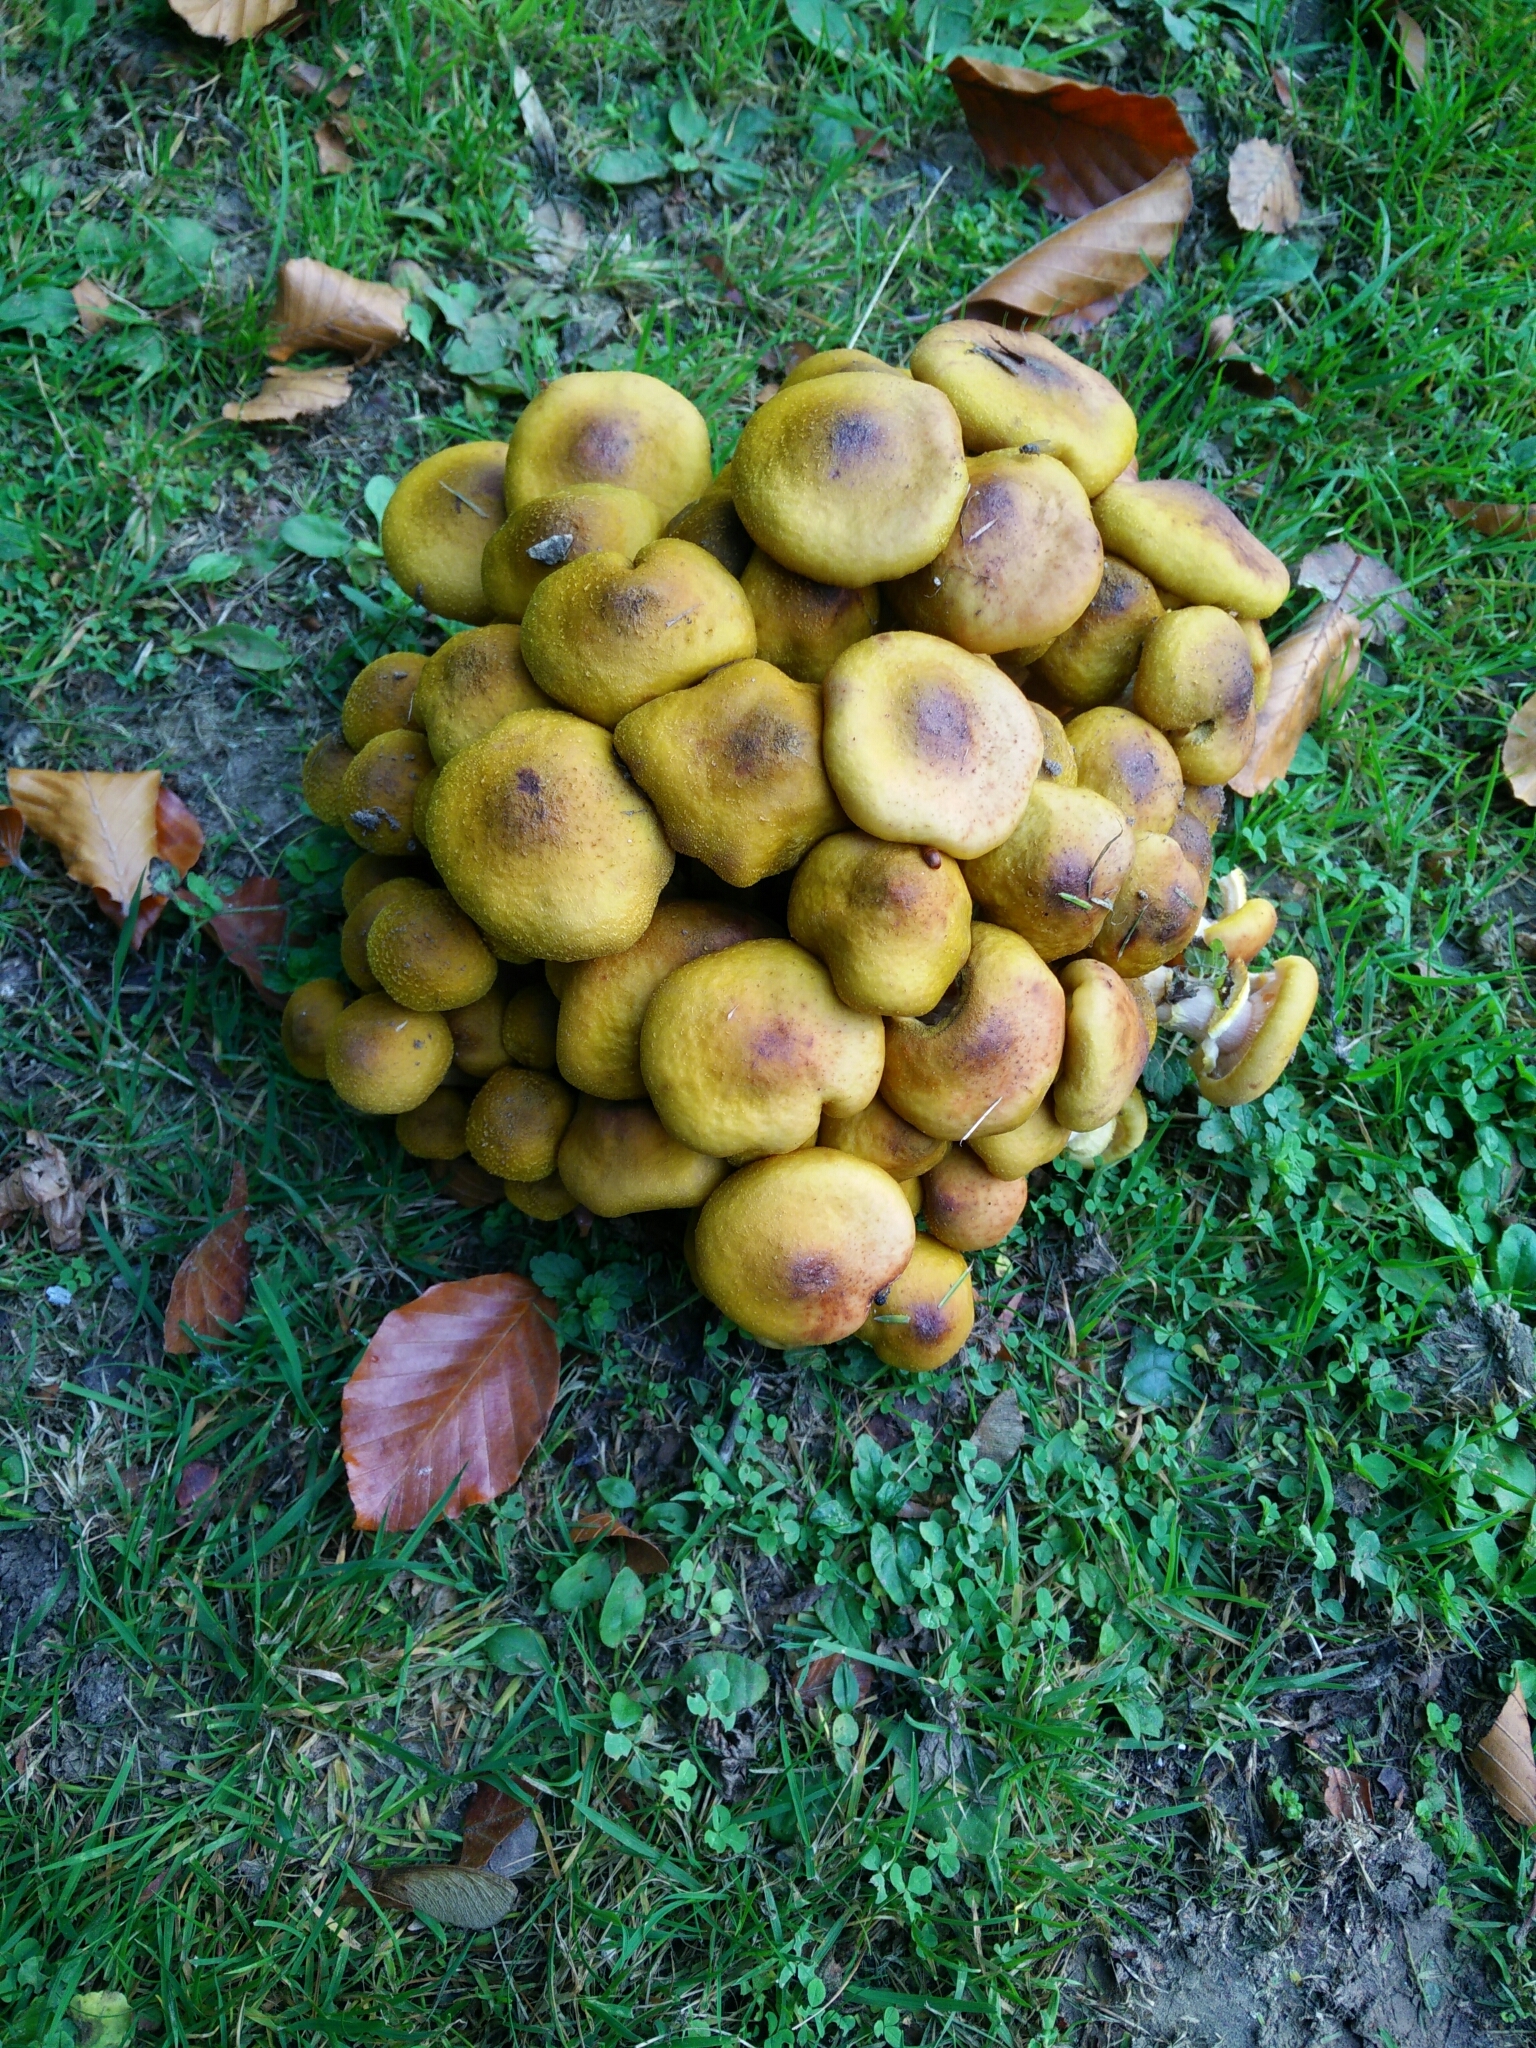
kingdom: Fungi
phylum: Basidiomycota
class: Agaricomycetes
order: Agaricales
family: Physalacriaceae
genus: Armillaria
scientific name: Armillaria mellea
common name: Honey fungus
